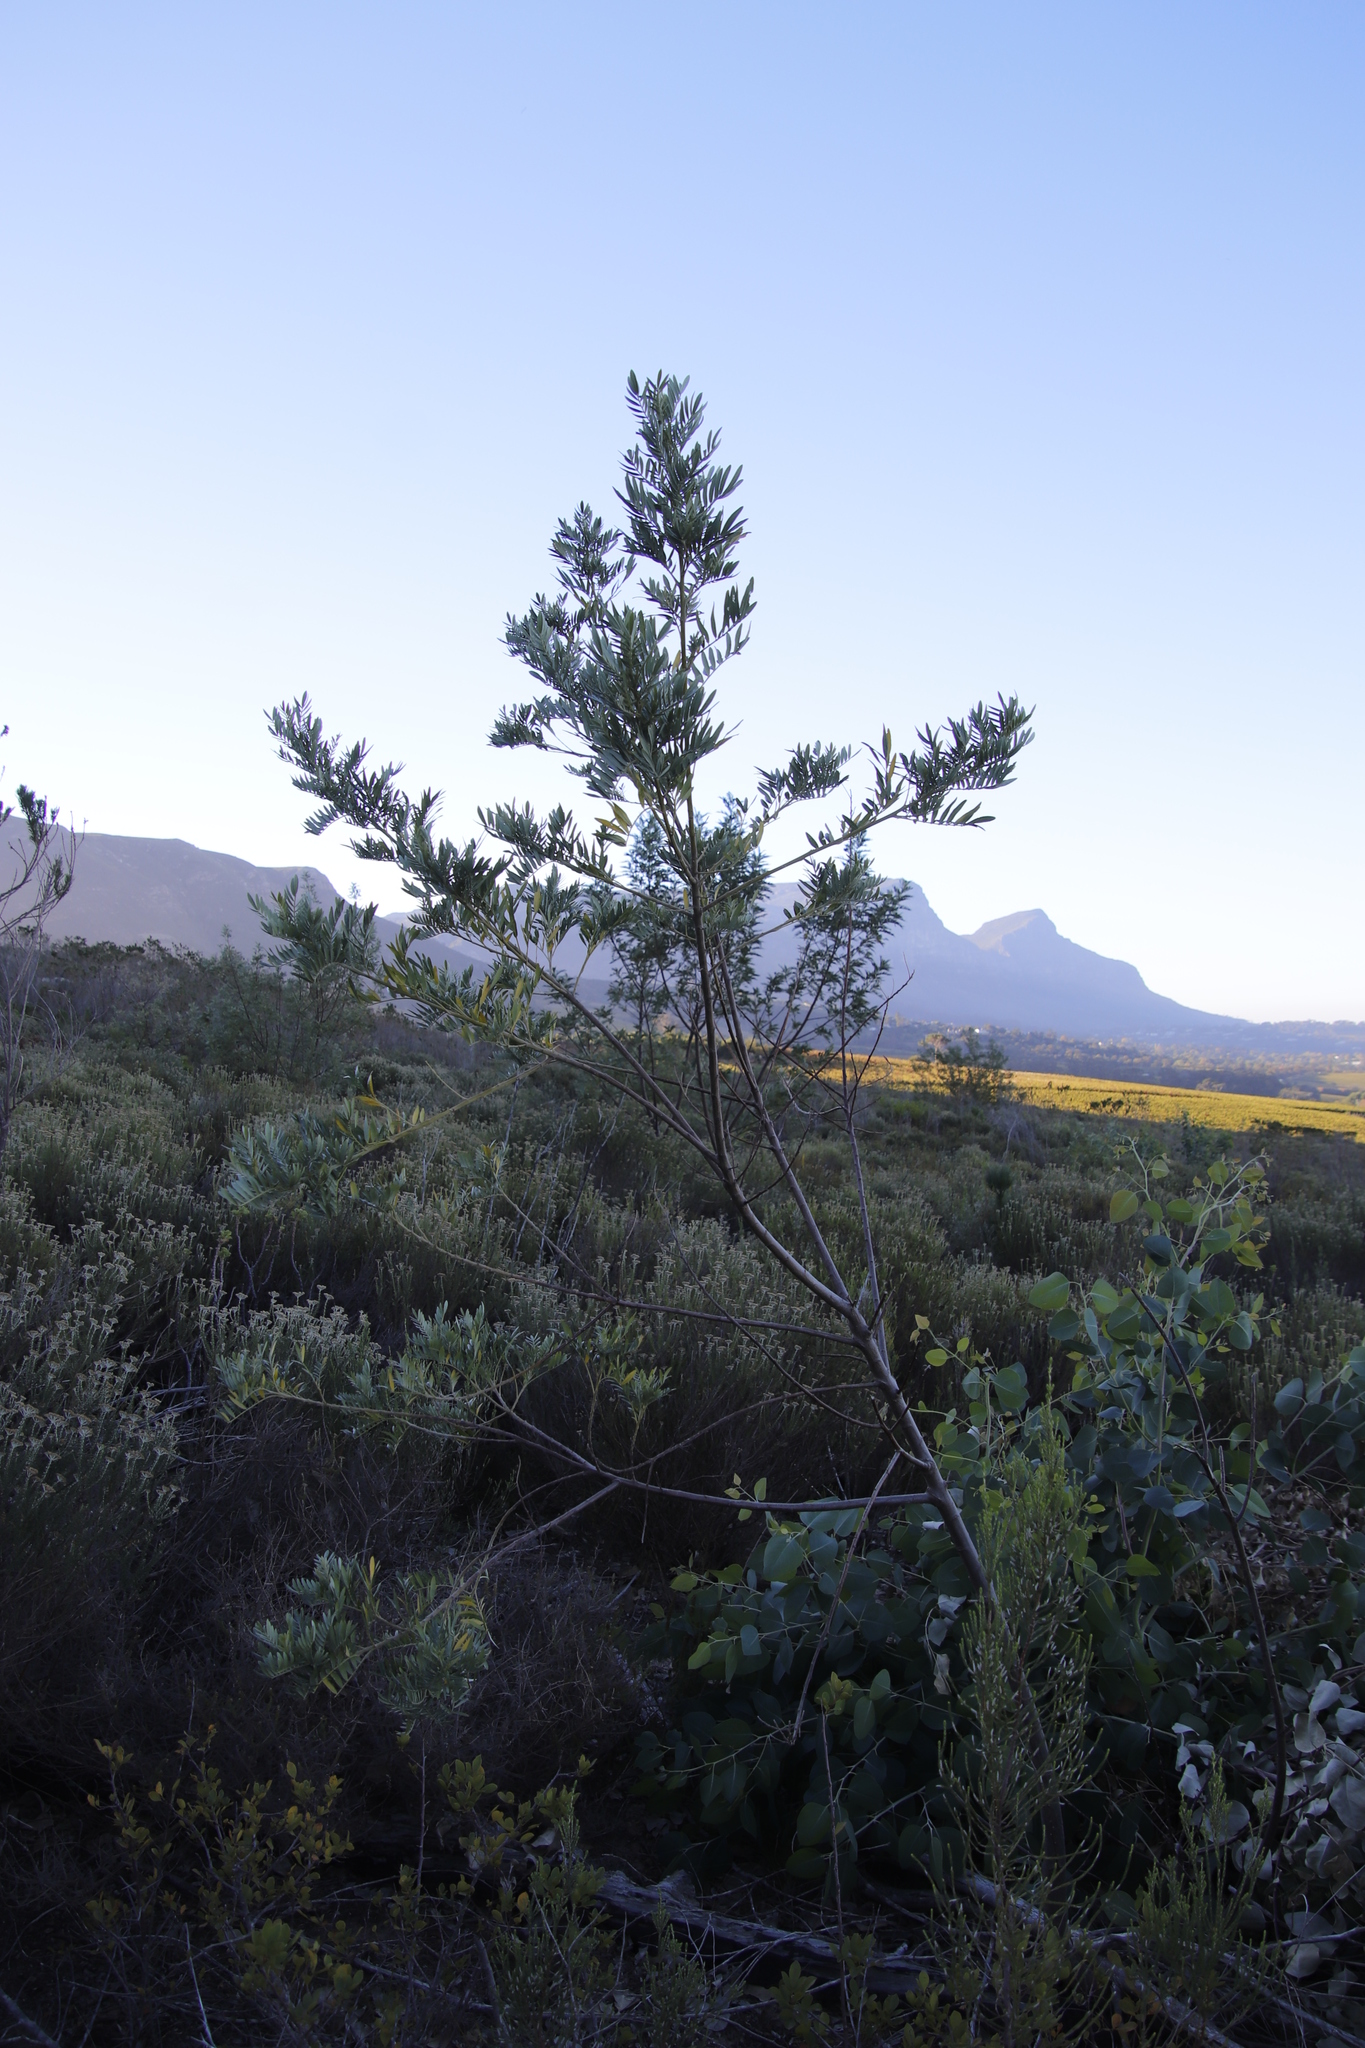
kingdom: Plantae
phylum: Tracheophyta
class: Magnoliopsida
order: Fabales
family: Fabaceae
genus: Virgilia
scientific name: Virgilia oroboides
